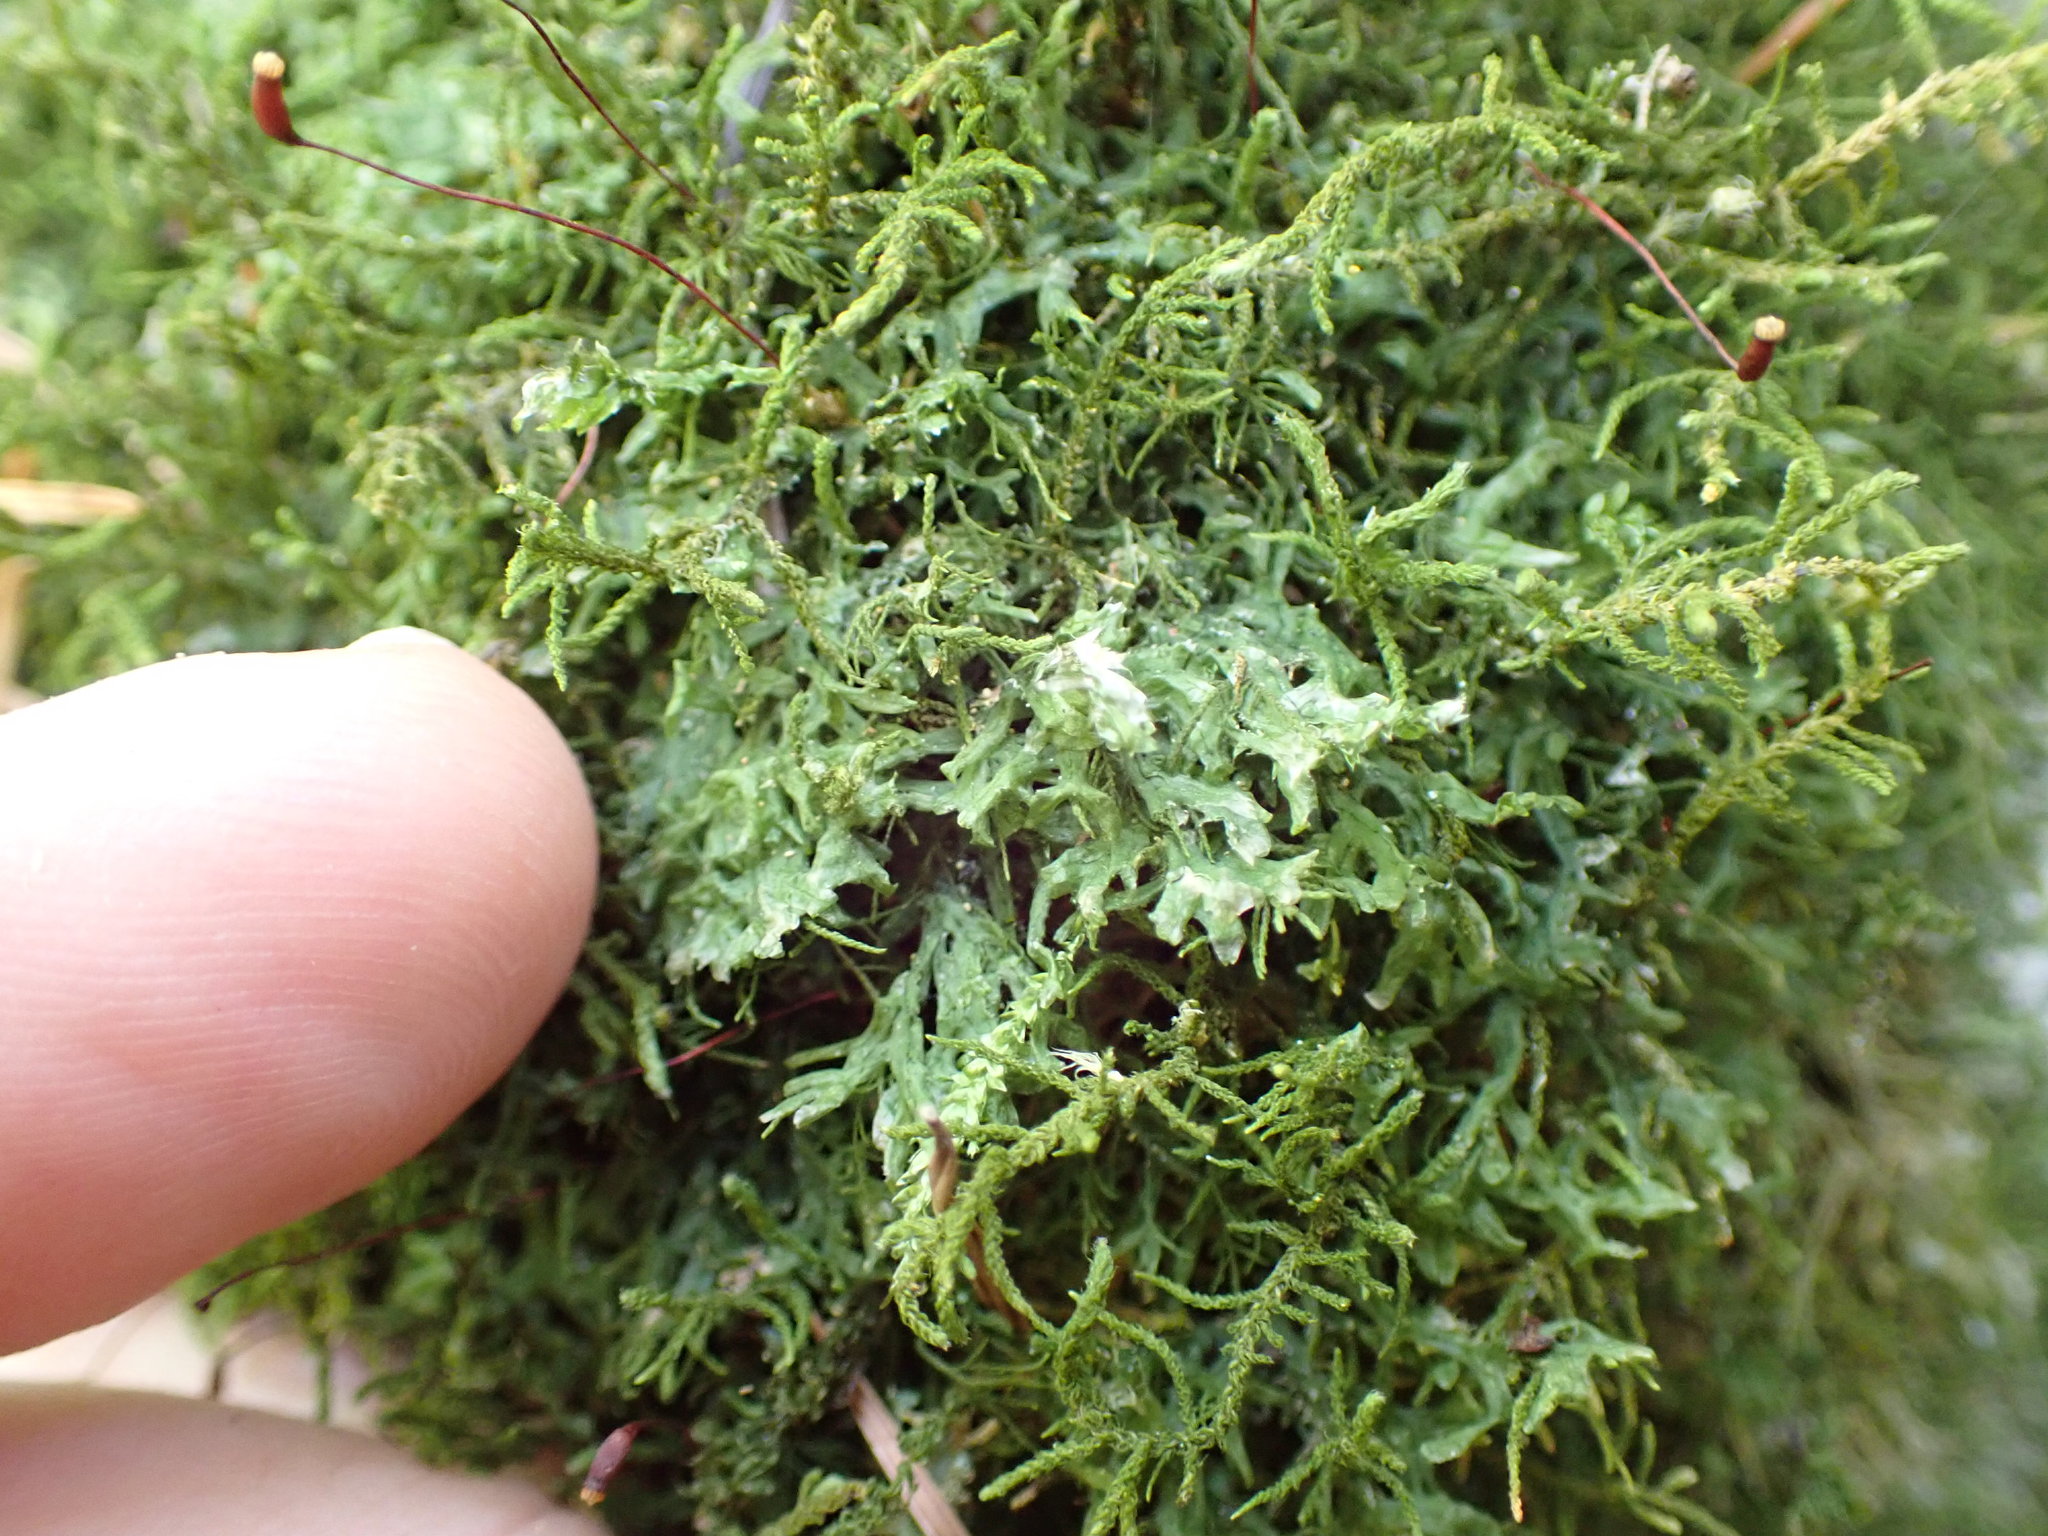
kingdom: Plantae
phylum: Marchantiophyta
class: Jungermanniopsida
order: Metzgeriales
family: Metzgeriaceae
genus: Metzgeria
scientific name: Metzgeria conjugata
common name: Rock veilwort
